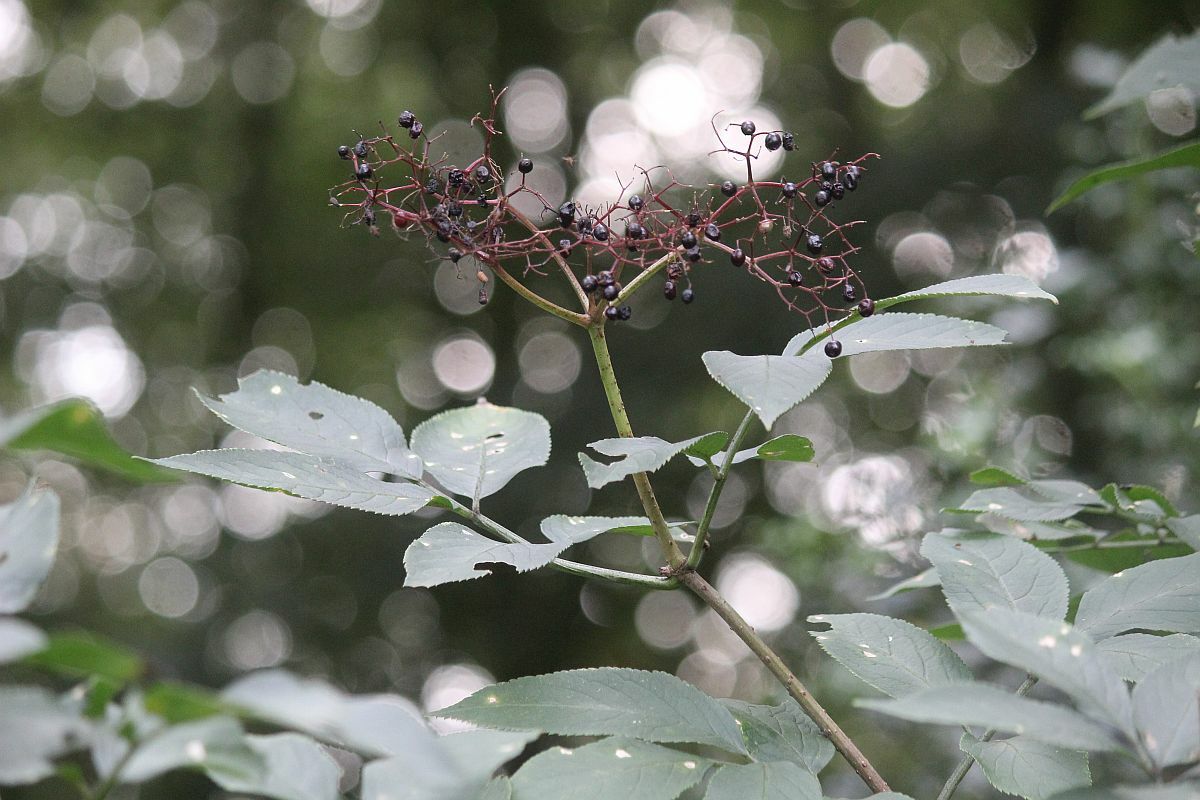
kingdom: Plantae
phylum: Tracheophyta
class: Magnoliopsida
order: Dipsacales
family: Viburnaceae
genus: Sambucus
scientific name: Sambucus nigra
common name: Elder
